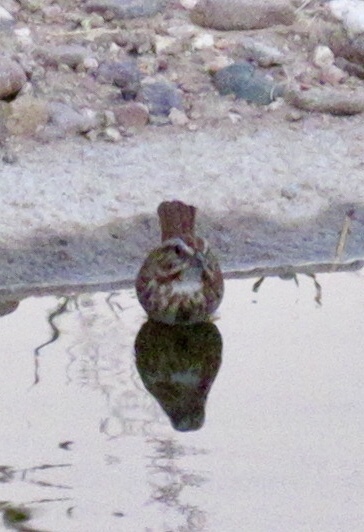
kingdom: Animalia
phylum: Chordata
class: Aves
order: Passeriformes
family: Passerellidae
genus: Melospiza
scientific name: Melospiza melodia
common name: Song sparrow
